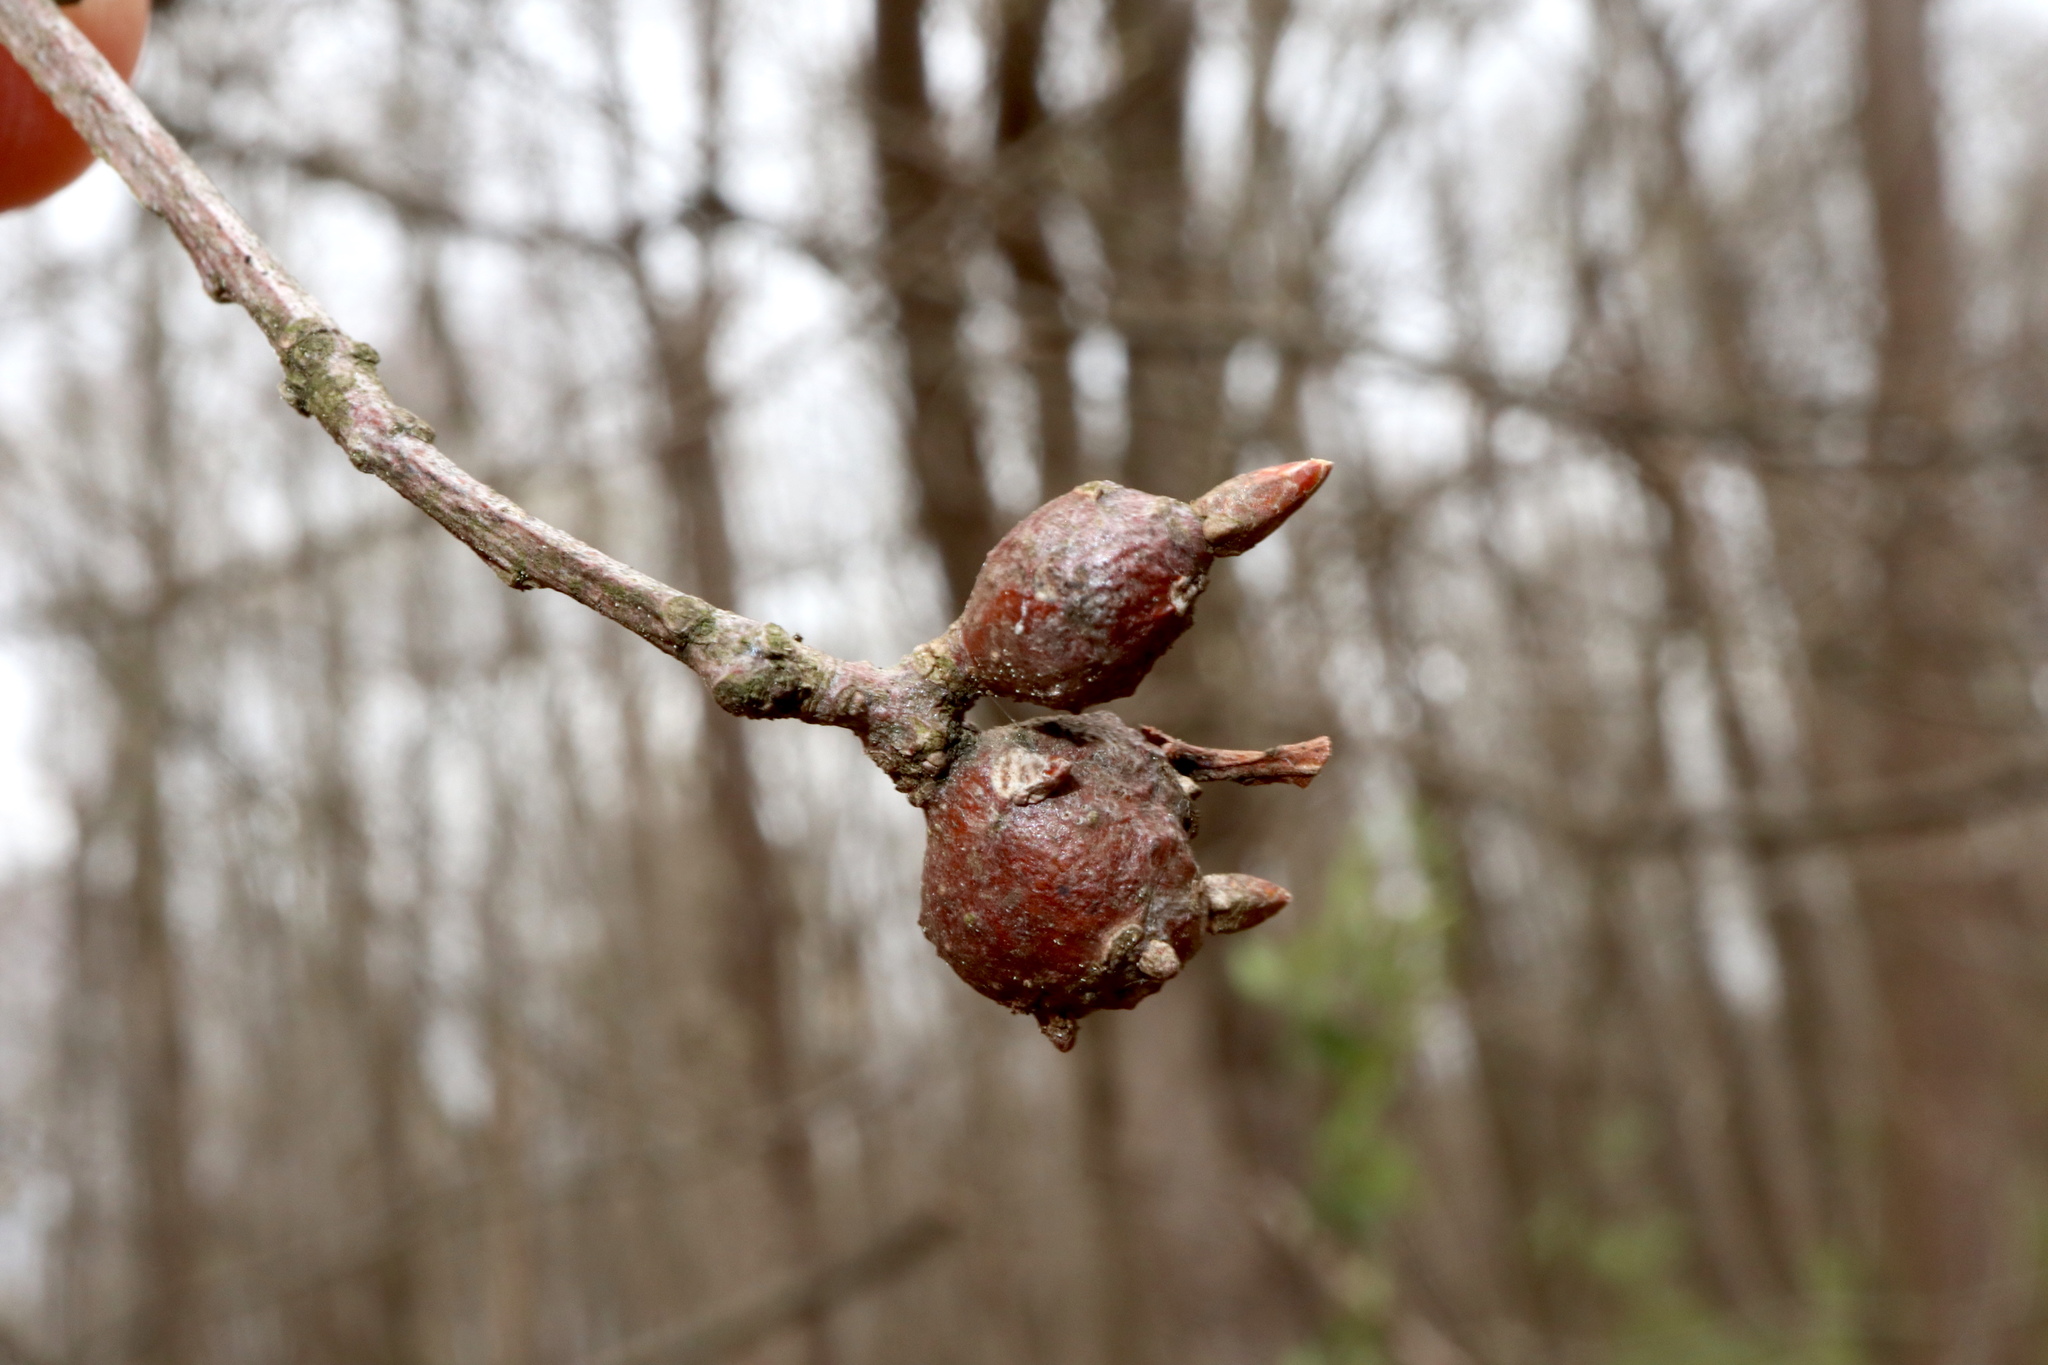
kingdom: Animalia
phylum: Arthropoda
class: Insecta
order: Hymenoptera
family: Cynipidae
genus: Zapatella
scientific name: Zapatella quercusphellos
